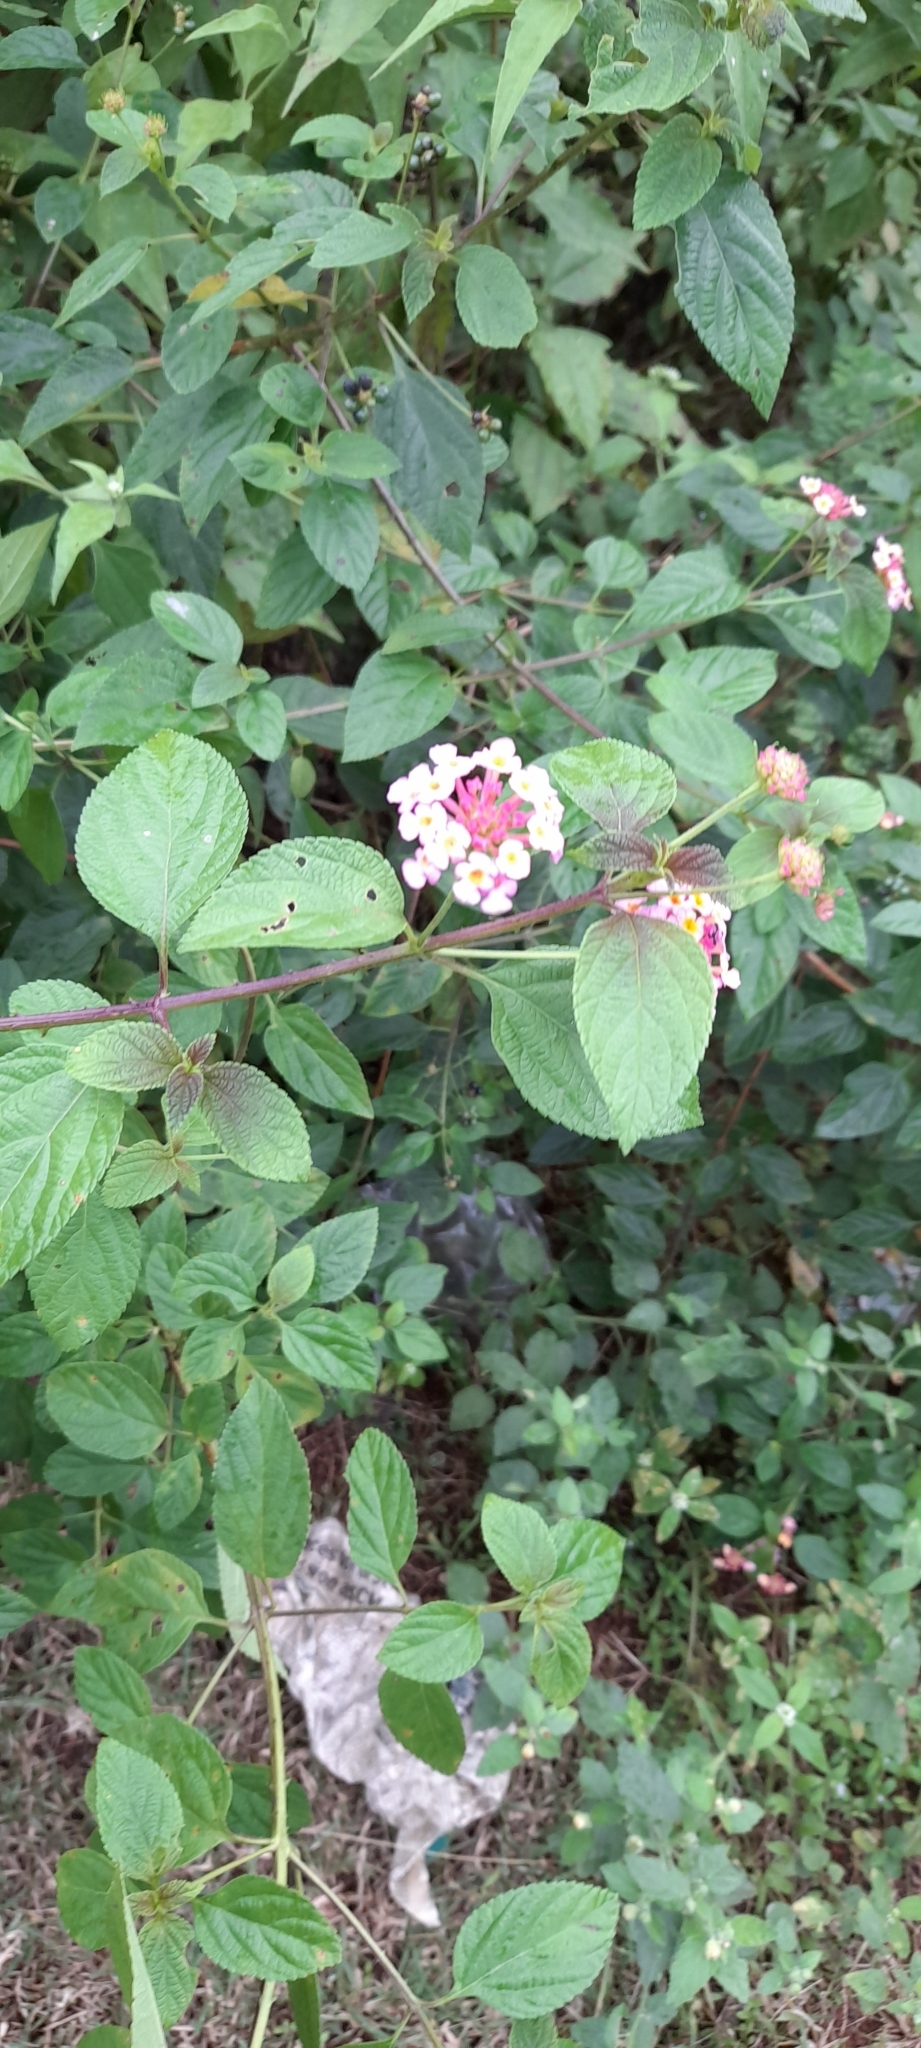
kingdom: Plantae
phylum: Tracheophyta
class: Magnoliopsida
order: Lamiales
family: Verbenaceae
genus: Lantana
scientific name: Lantana camara
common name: Lantana
